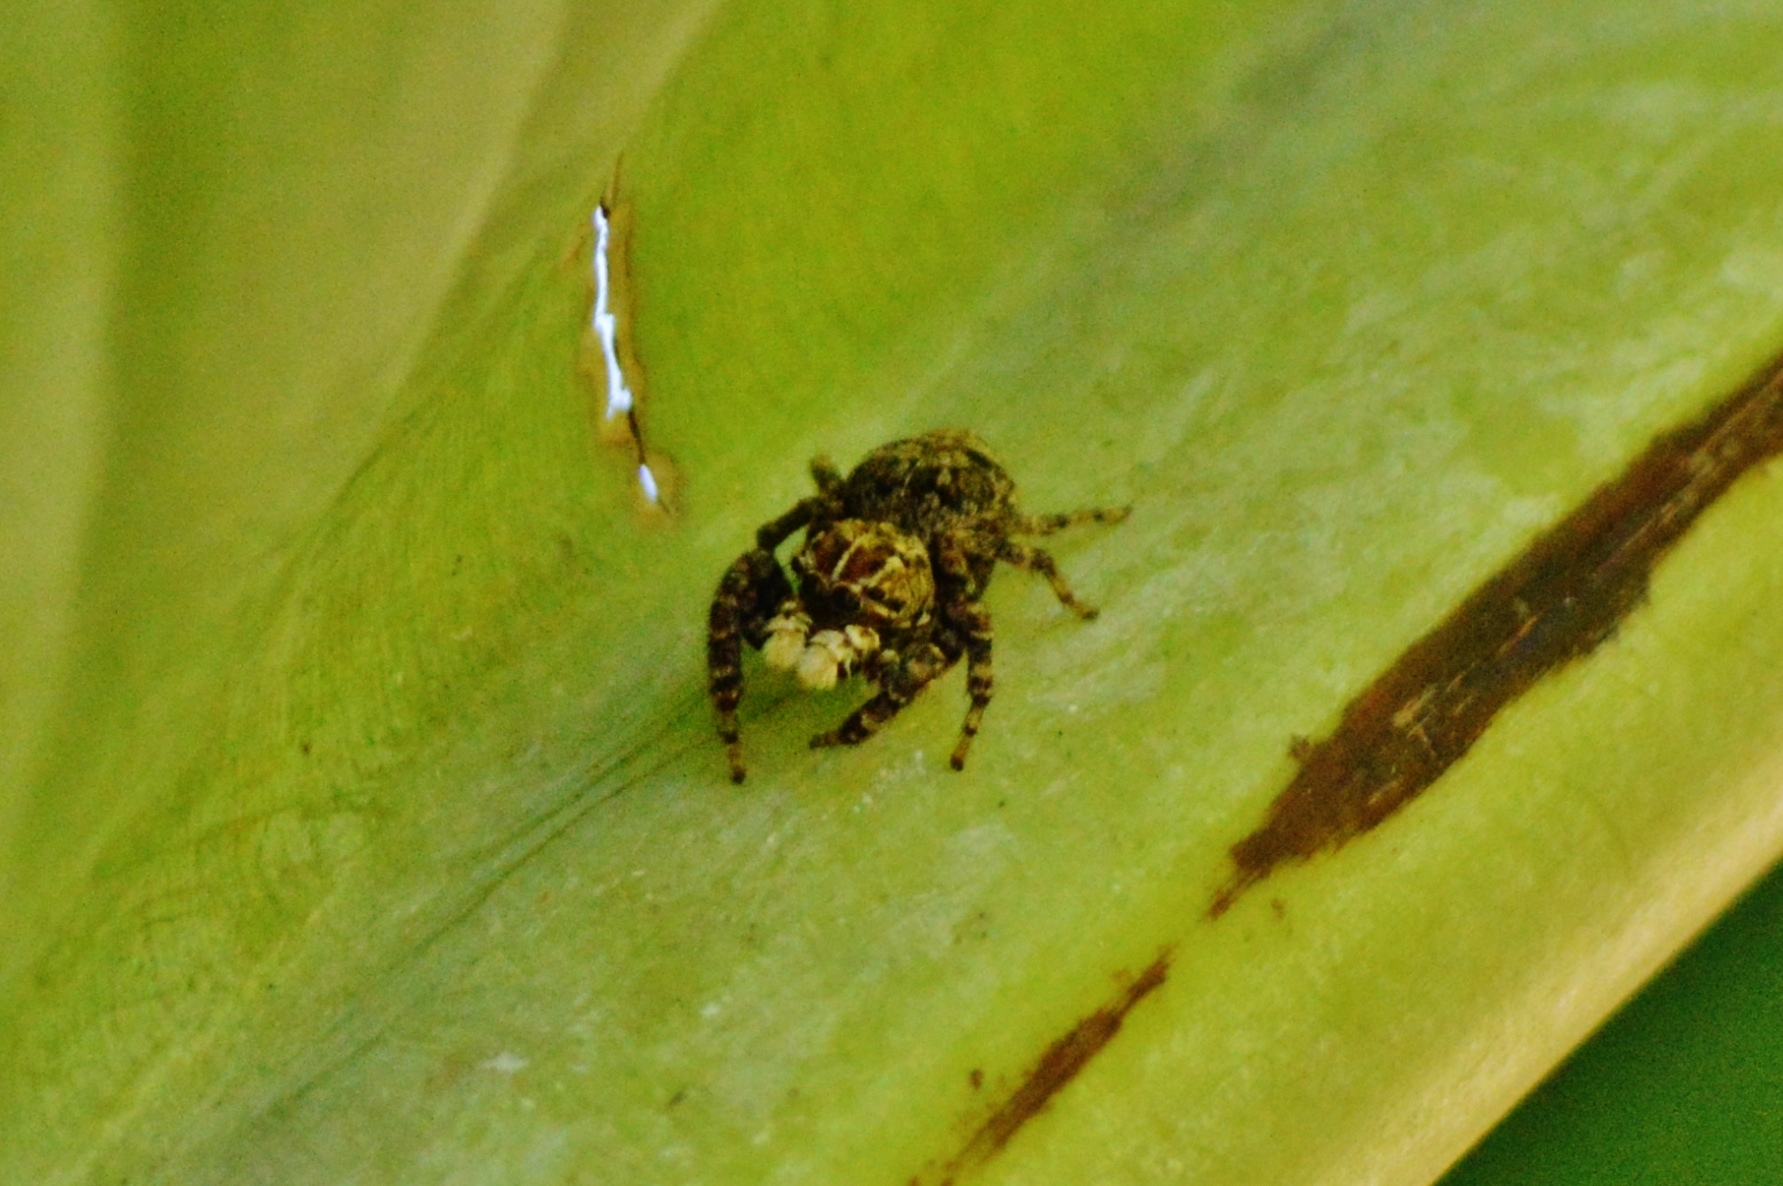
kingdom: Animalia
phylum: Arthropoda
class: Arachnida
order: Araneae
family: Salticidae
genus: Sumampattus
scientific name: Sumampattus quinqueradiatus
